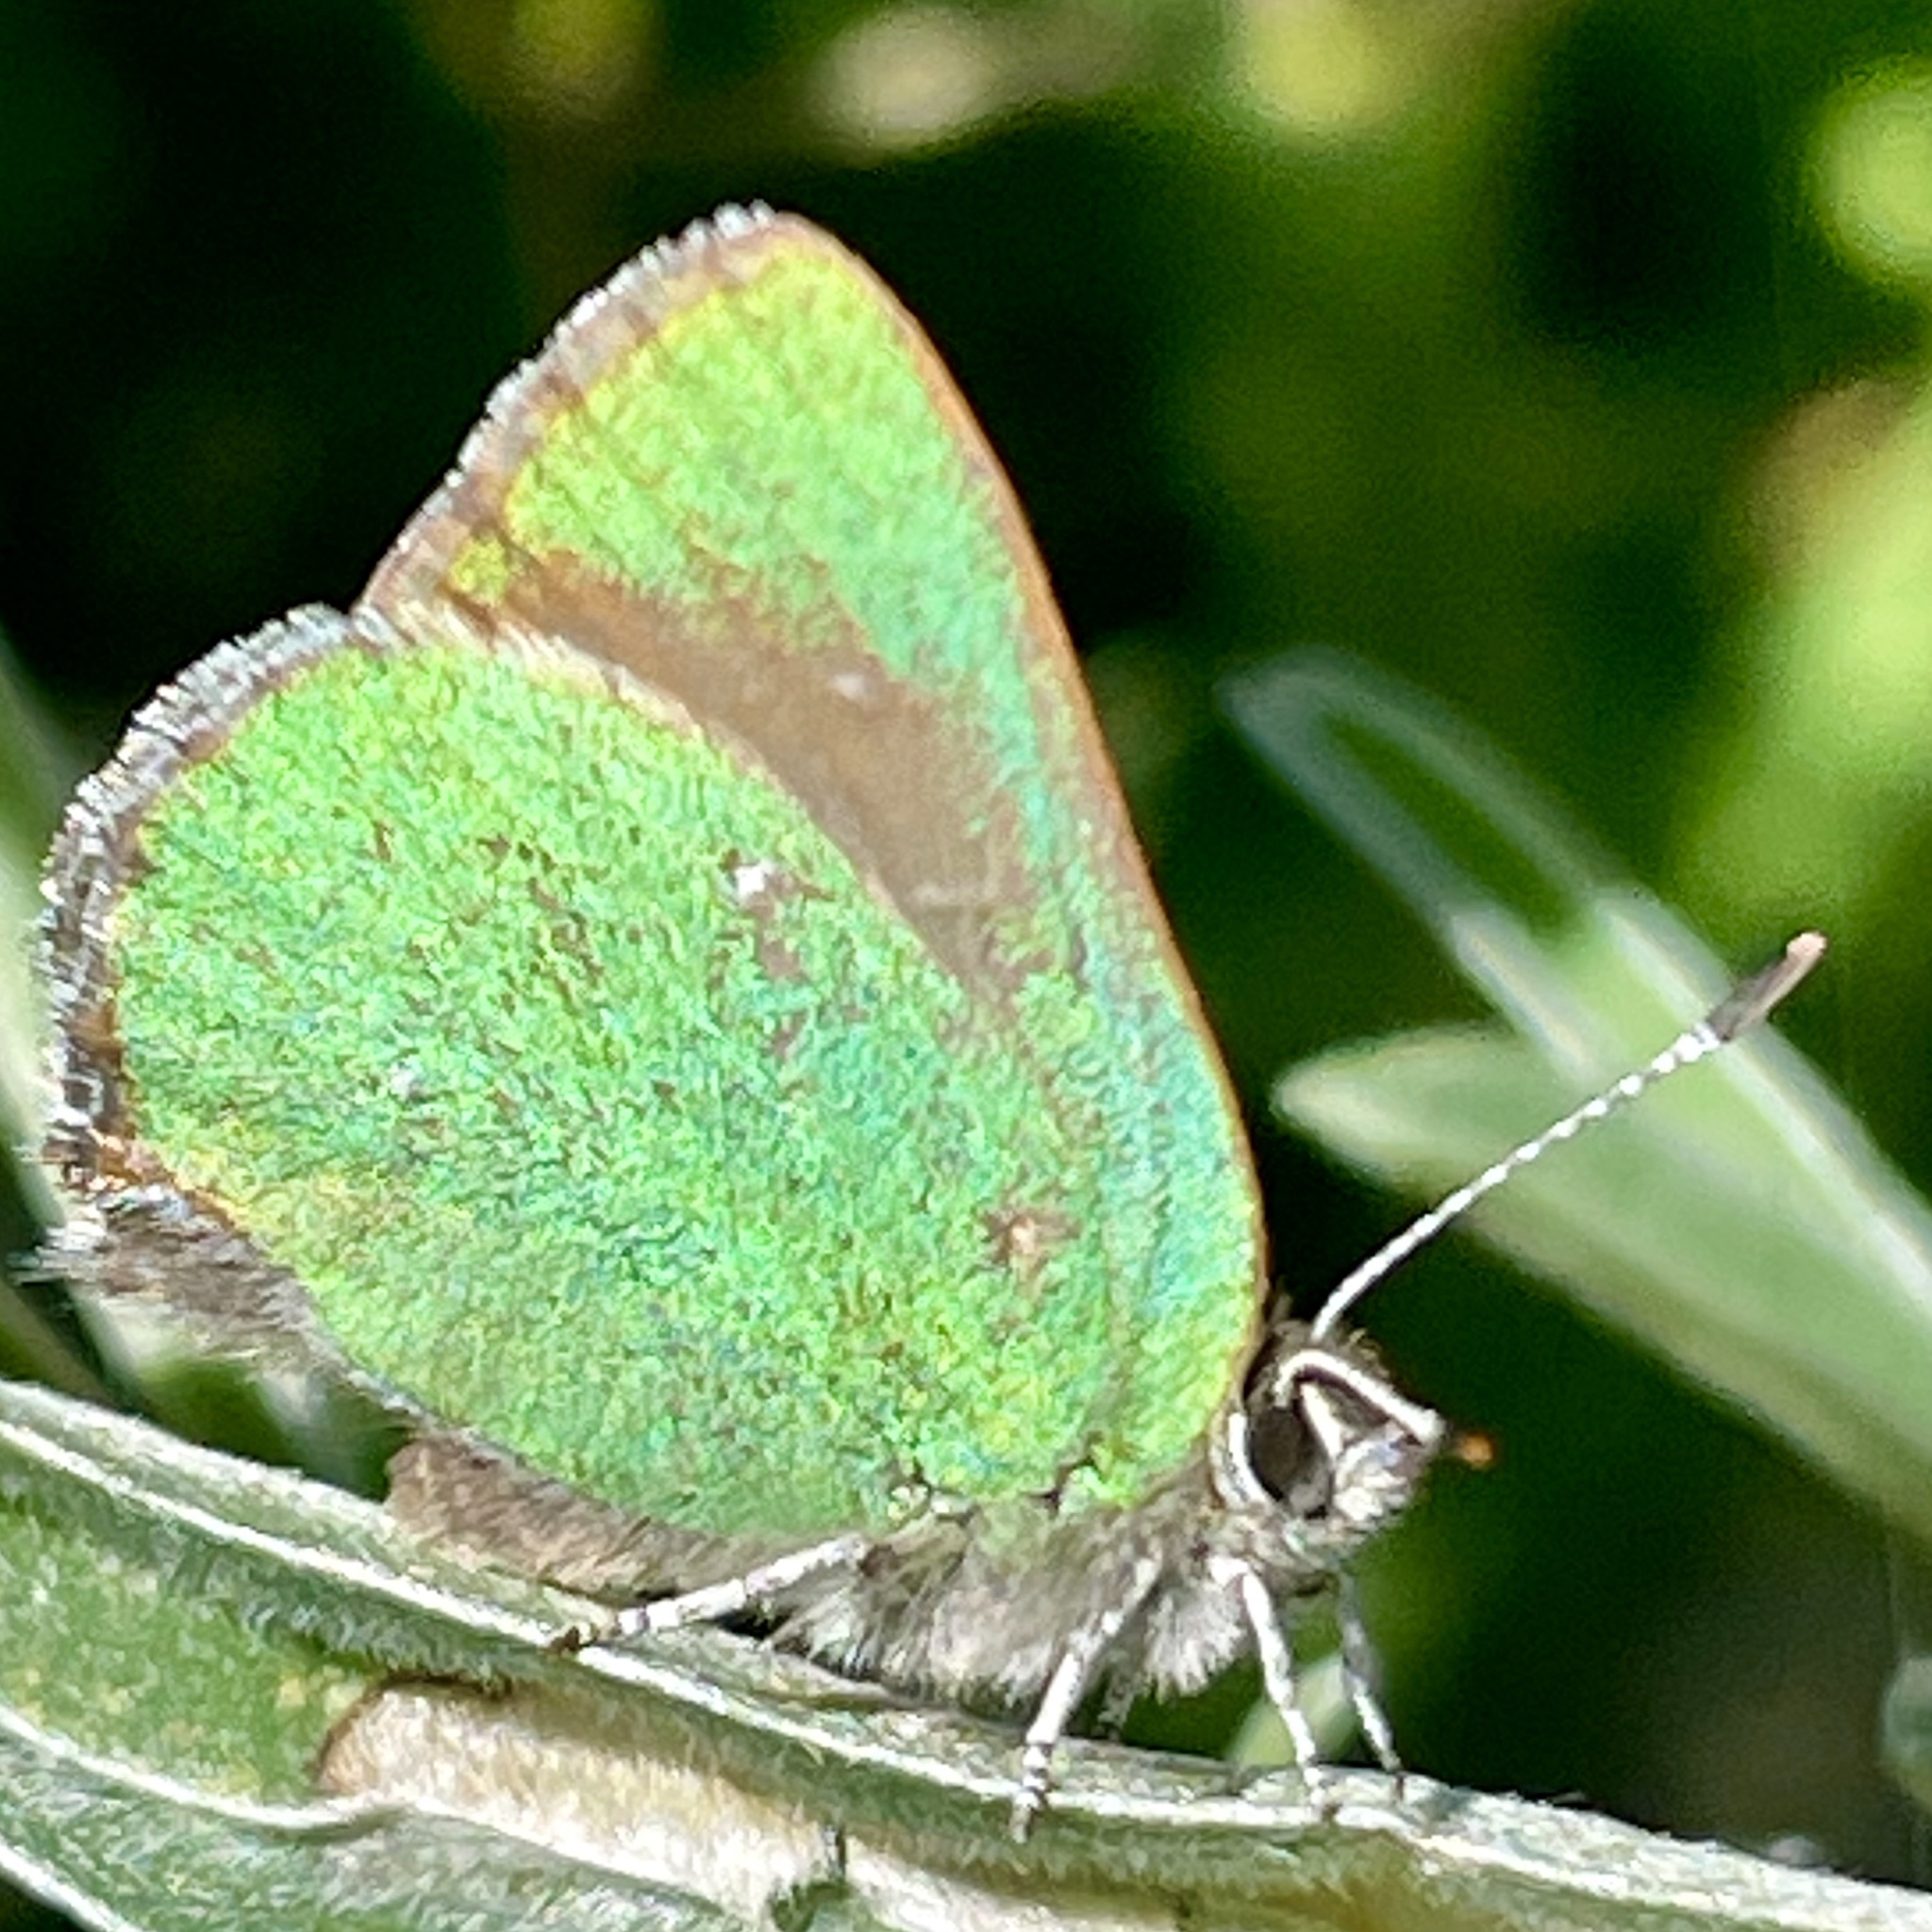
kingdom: Animalia
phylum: Arthropoda
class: Insecta
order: Lepidoptera
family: Lycaenidae
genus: Callophrys
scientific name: Callophrys dumetorum
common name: Bramble hairstreak
